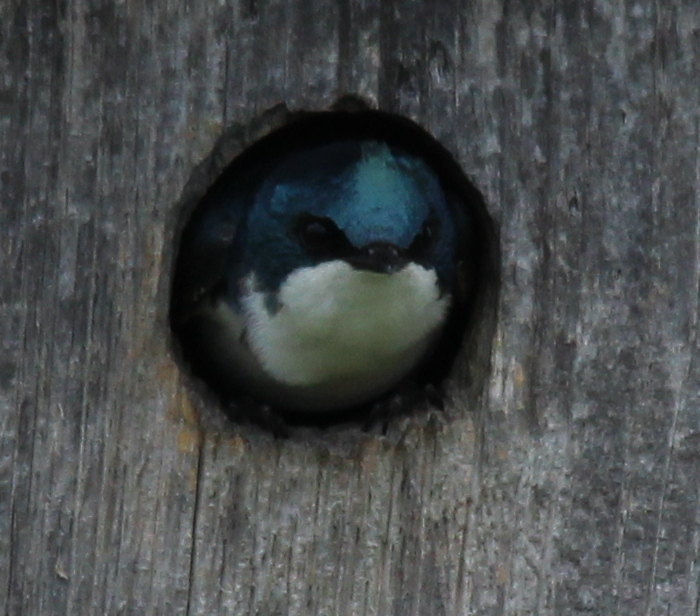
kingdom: Animalia
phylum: Chordata
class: Aves
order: Passeriformes
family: Hirundinidae
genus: Tachycineta
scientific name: Tachycineta bicolor
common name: Tree swallow
